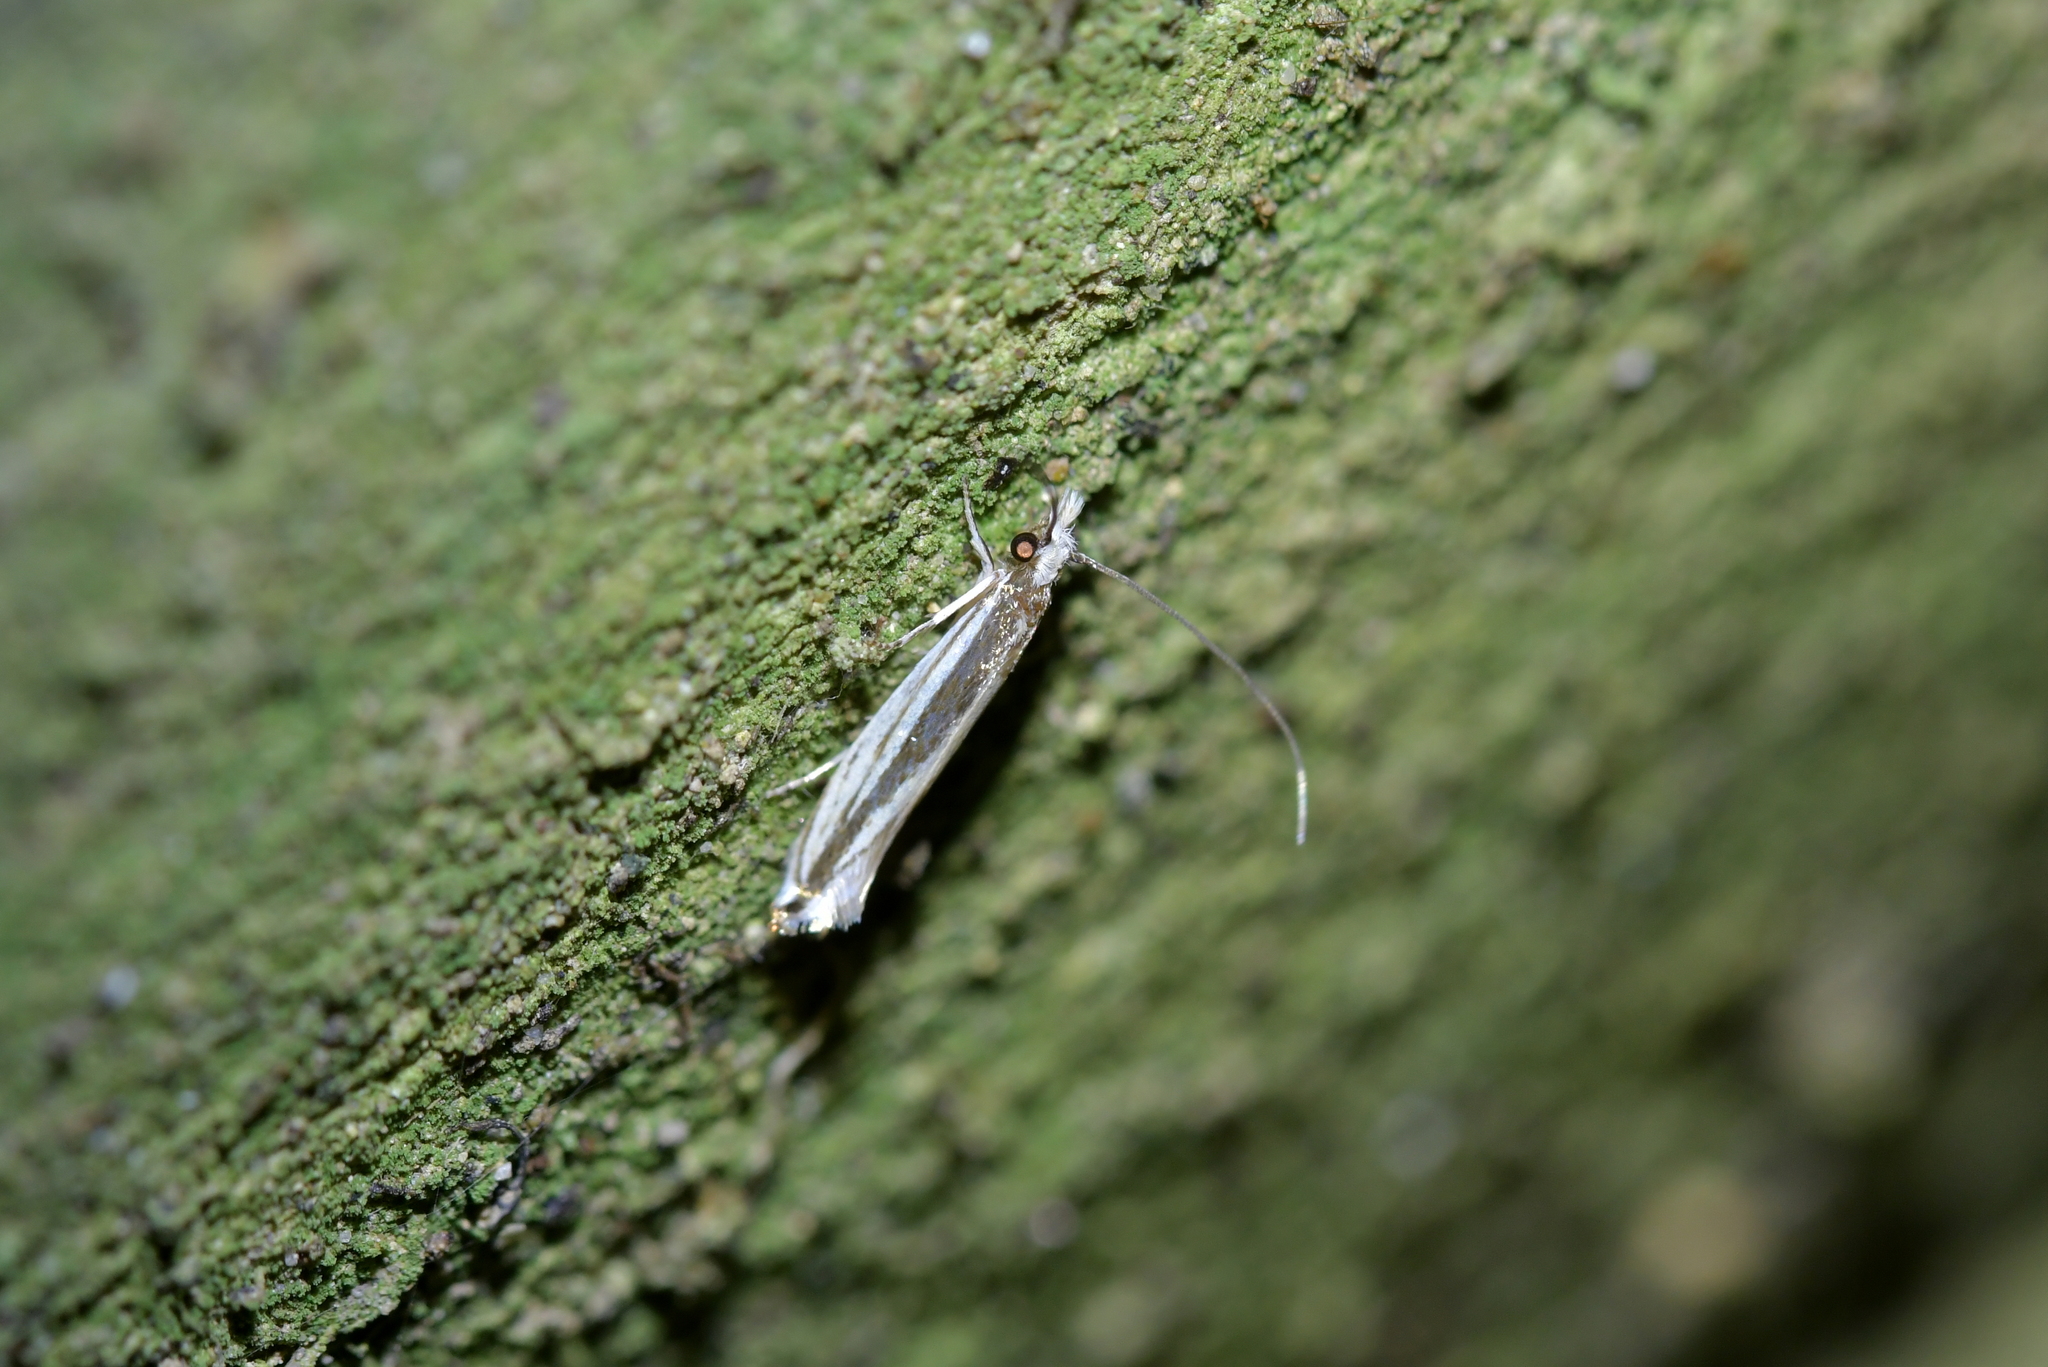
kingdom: Animalia
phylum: Arthropoda
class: Insecta
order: Lepidoptera
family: Tineidae
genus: Erechthias
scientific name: Erechthias stilbella
